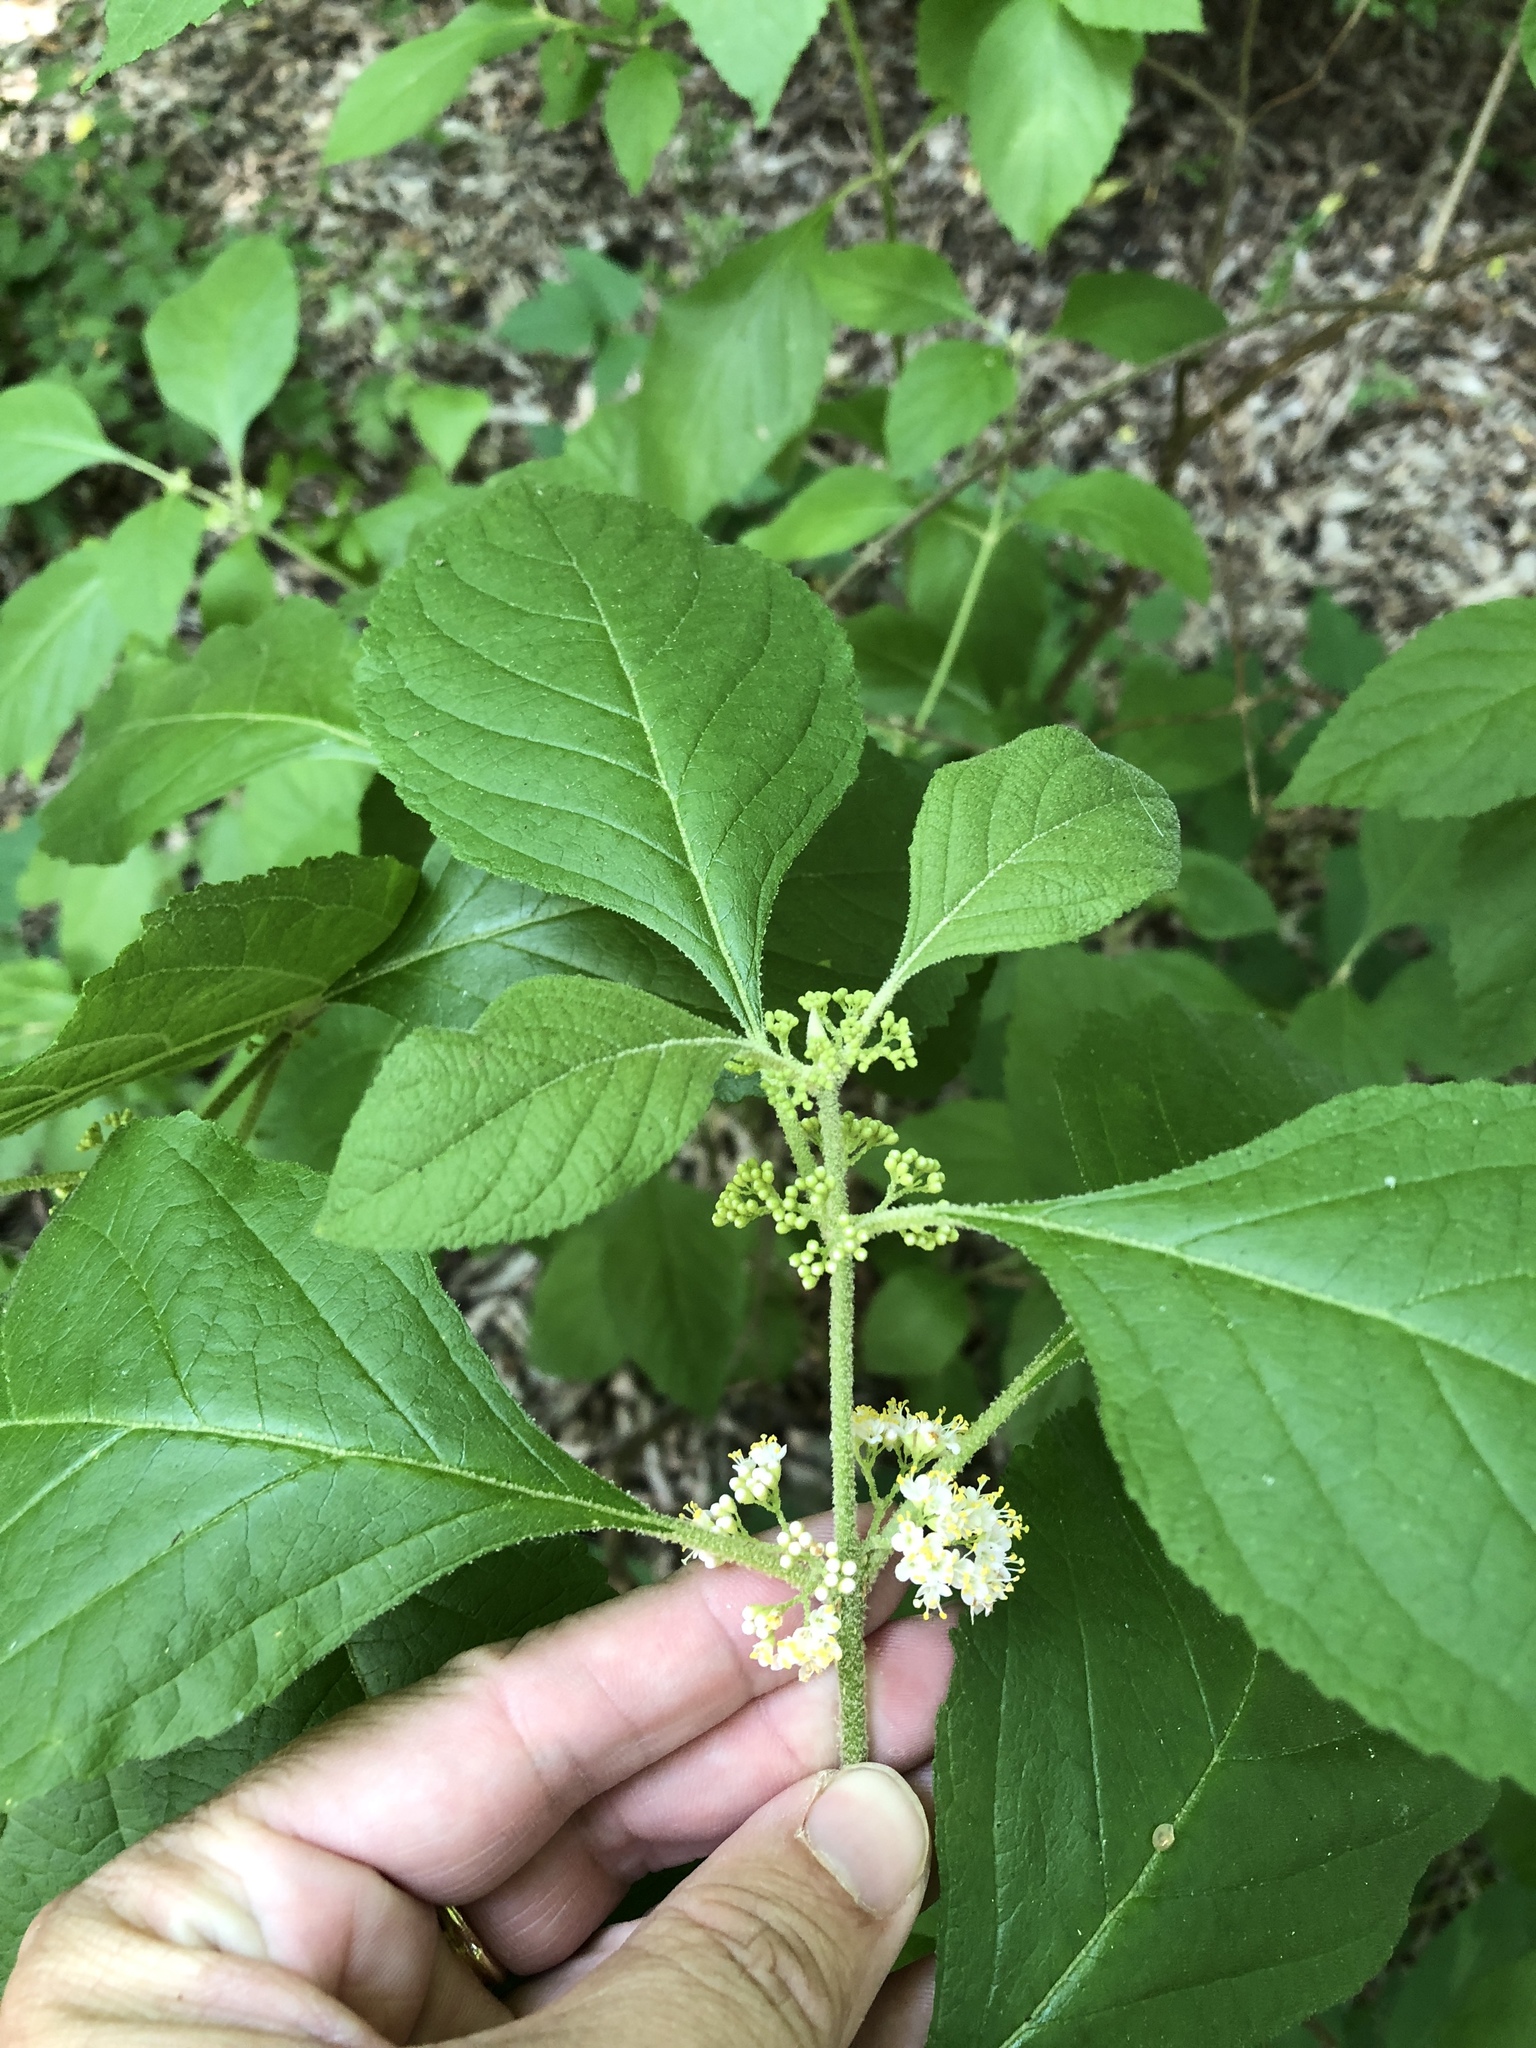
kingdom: Plantae
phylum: Tracheophyta
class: Magnoliopsida
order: Lamiales
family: Lamiaceae
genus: Callicarpa
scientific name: Callicarpa americana
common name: American beautyberry
